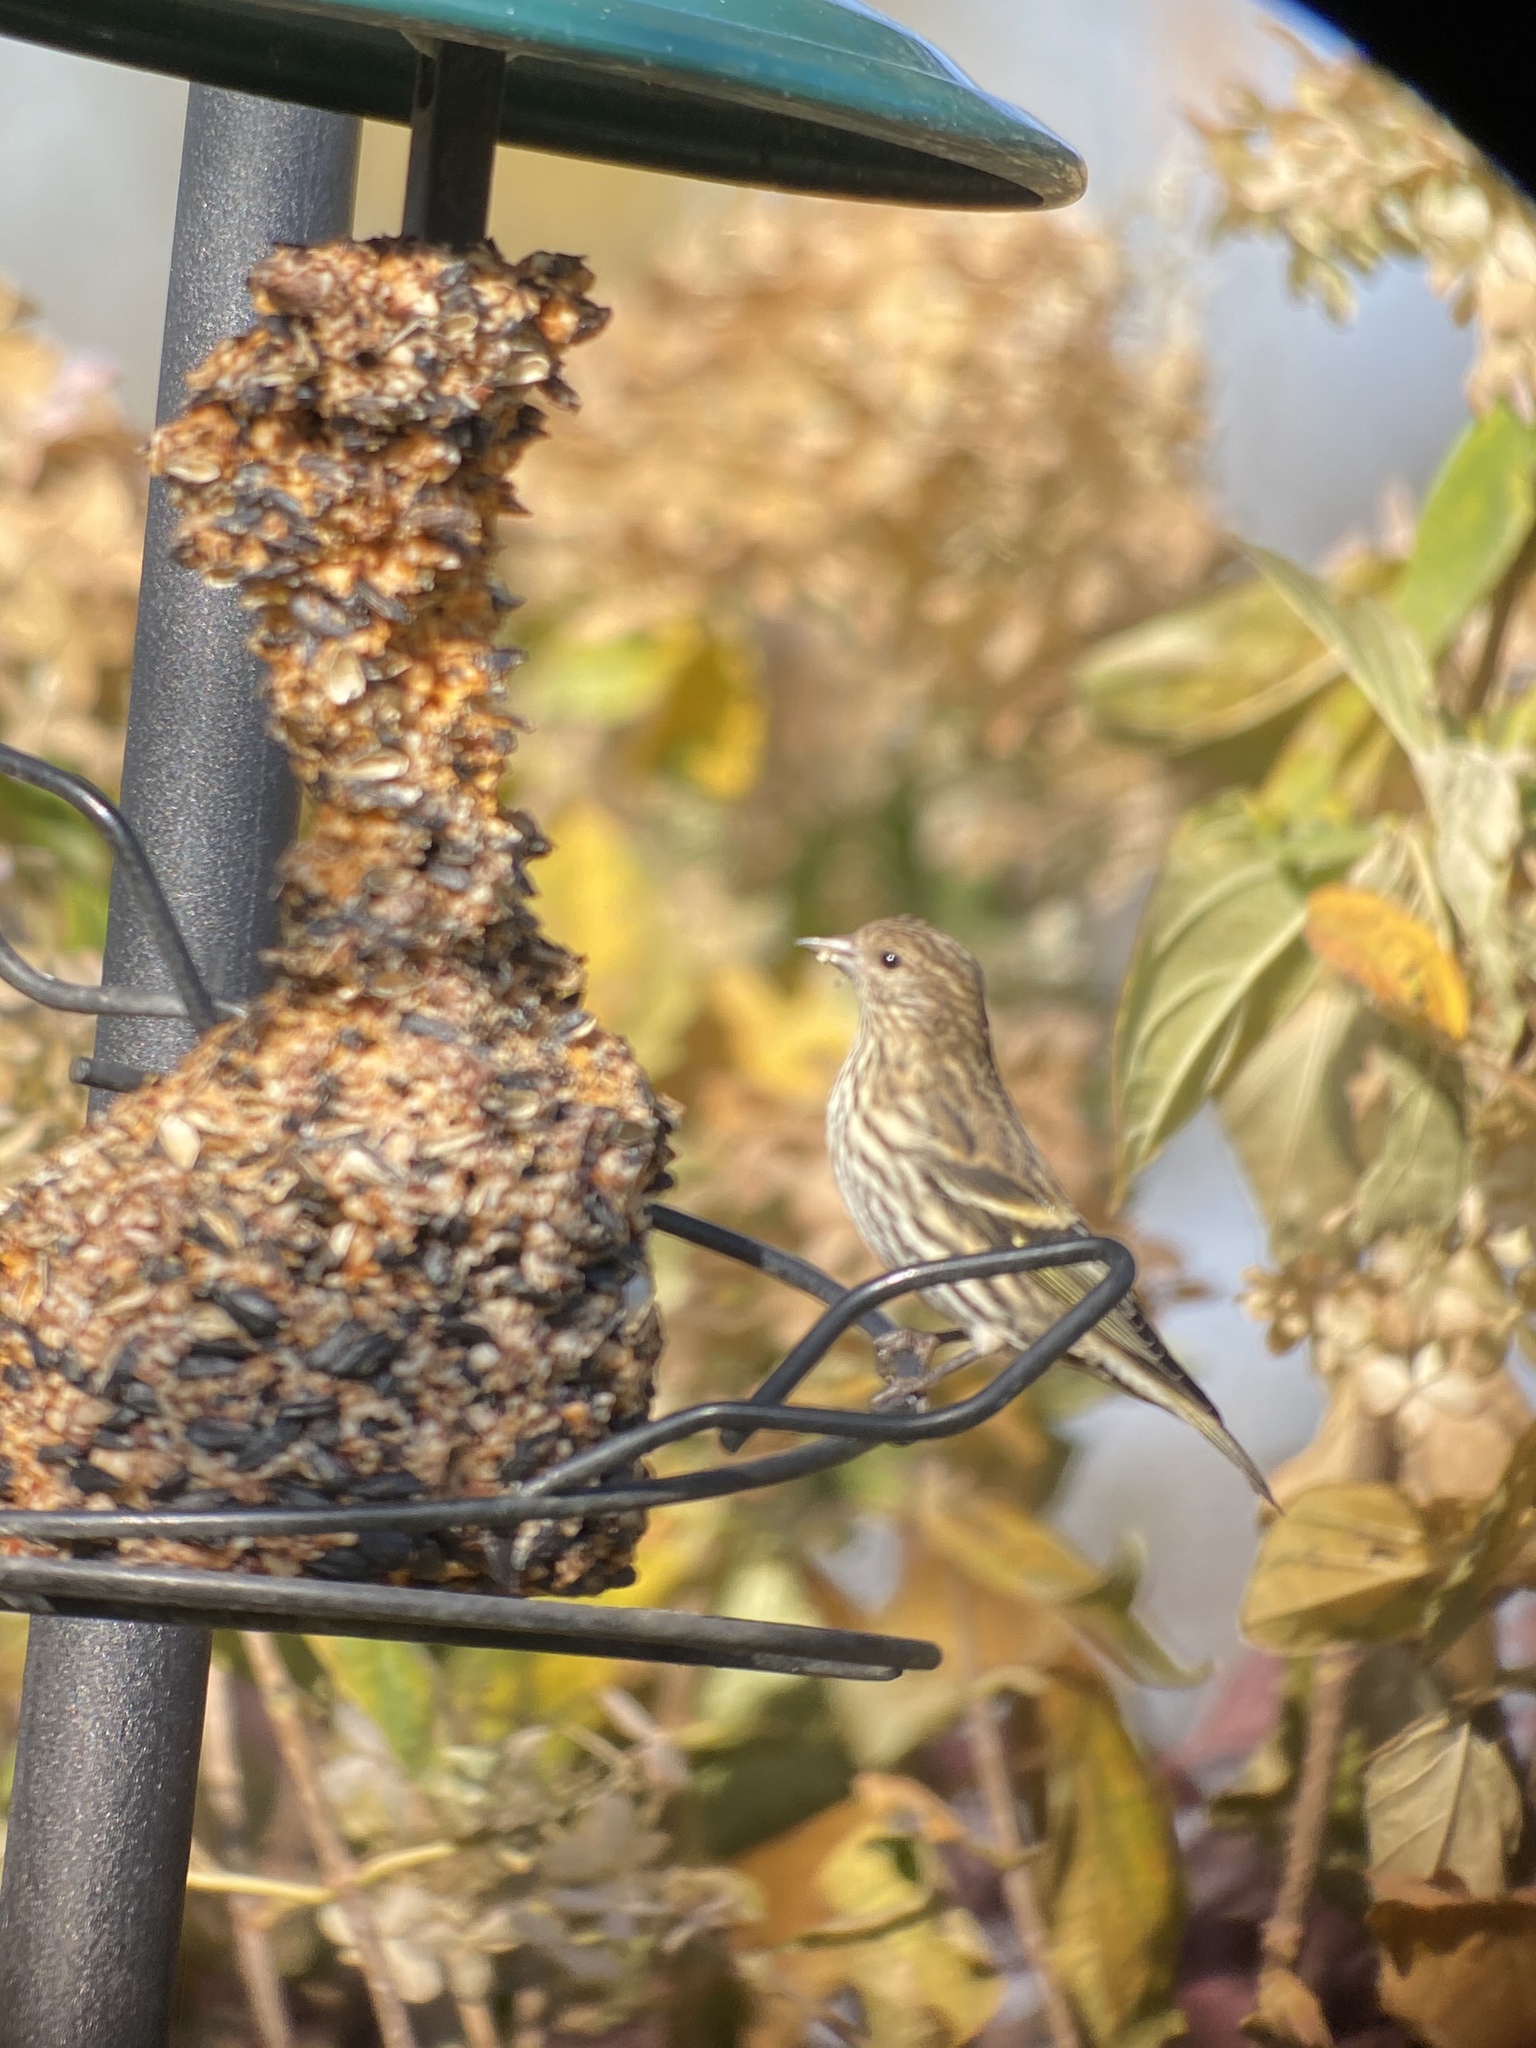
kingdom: Animalia
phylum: Chordata
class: Aves
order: Passeriformes
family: Fringillidae
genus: Spinus
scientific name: Spinus pinus
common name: Pine siskin
